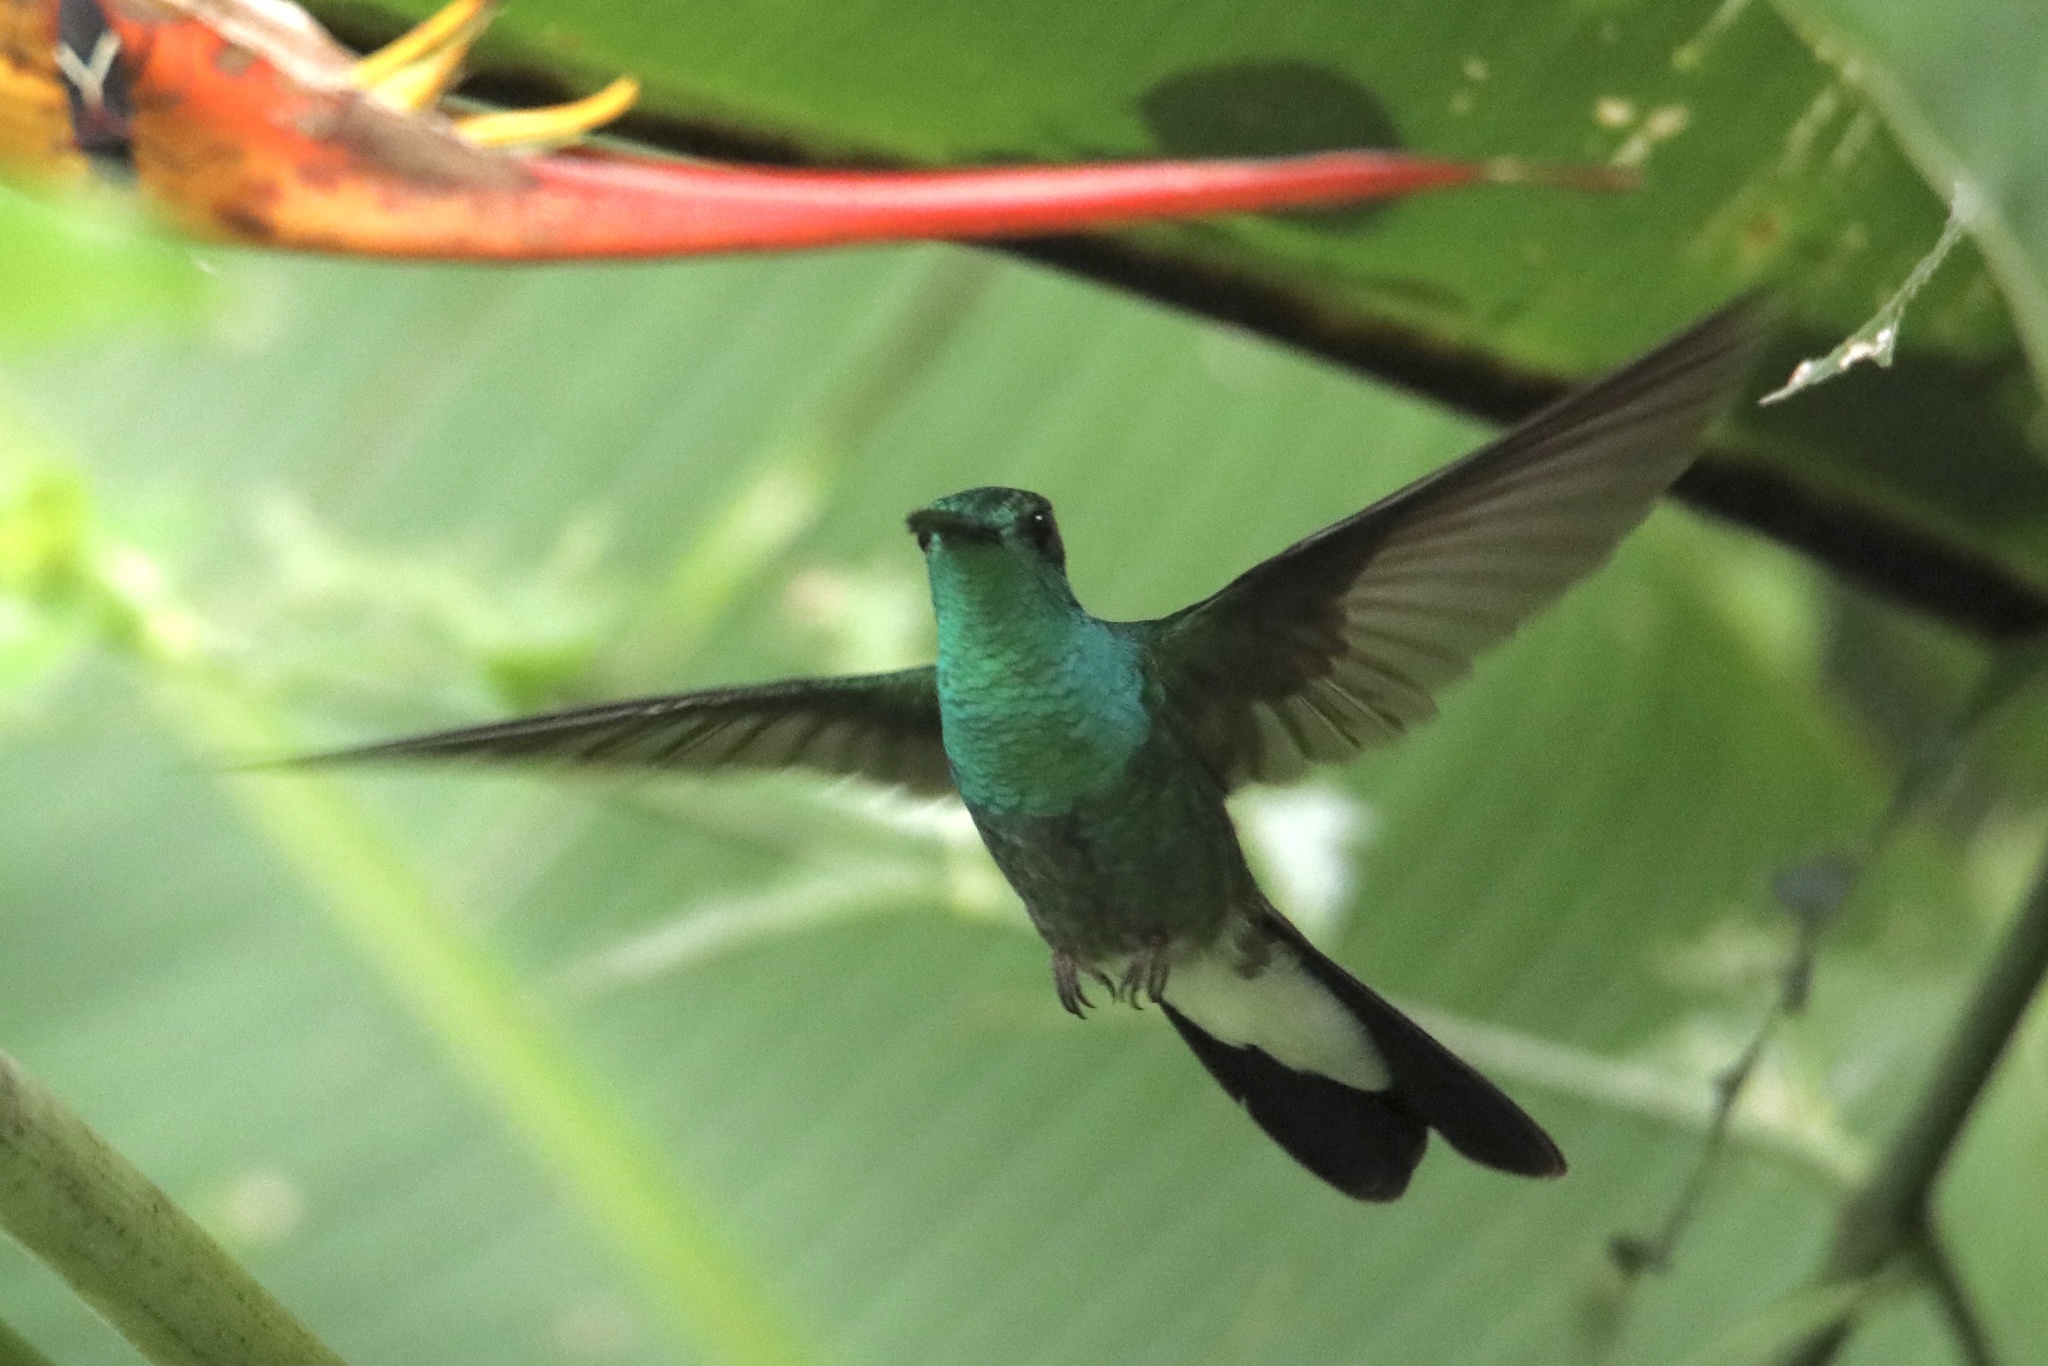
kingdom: Animalia
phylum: Chordata
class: Aves
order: Apodiformes
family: Trochilidae
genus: Chalybura
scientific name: Chalybura buffonii
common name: White-vented plumeleteer
